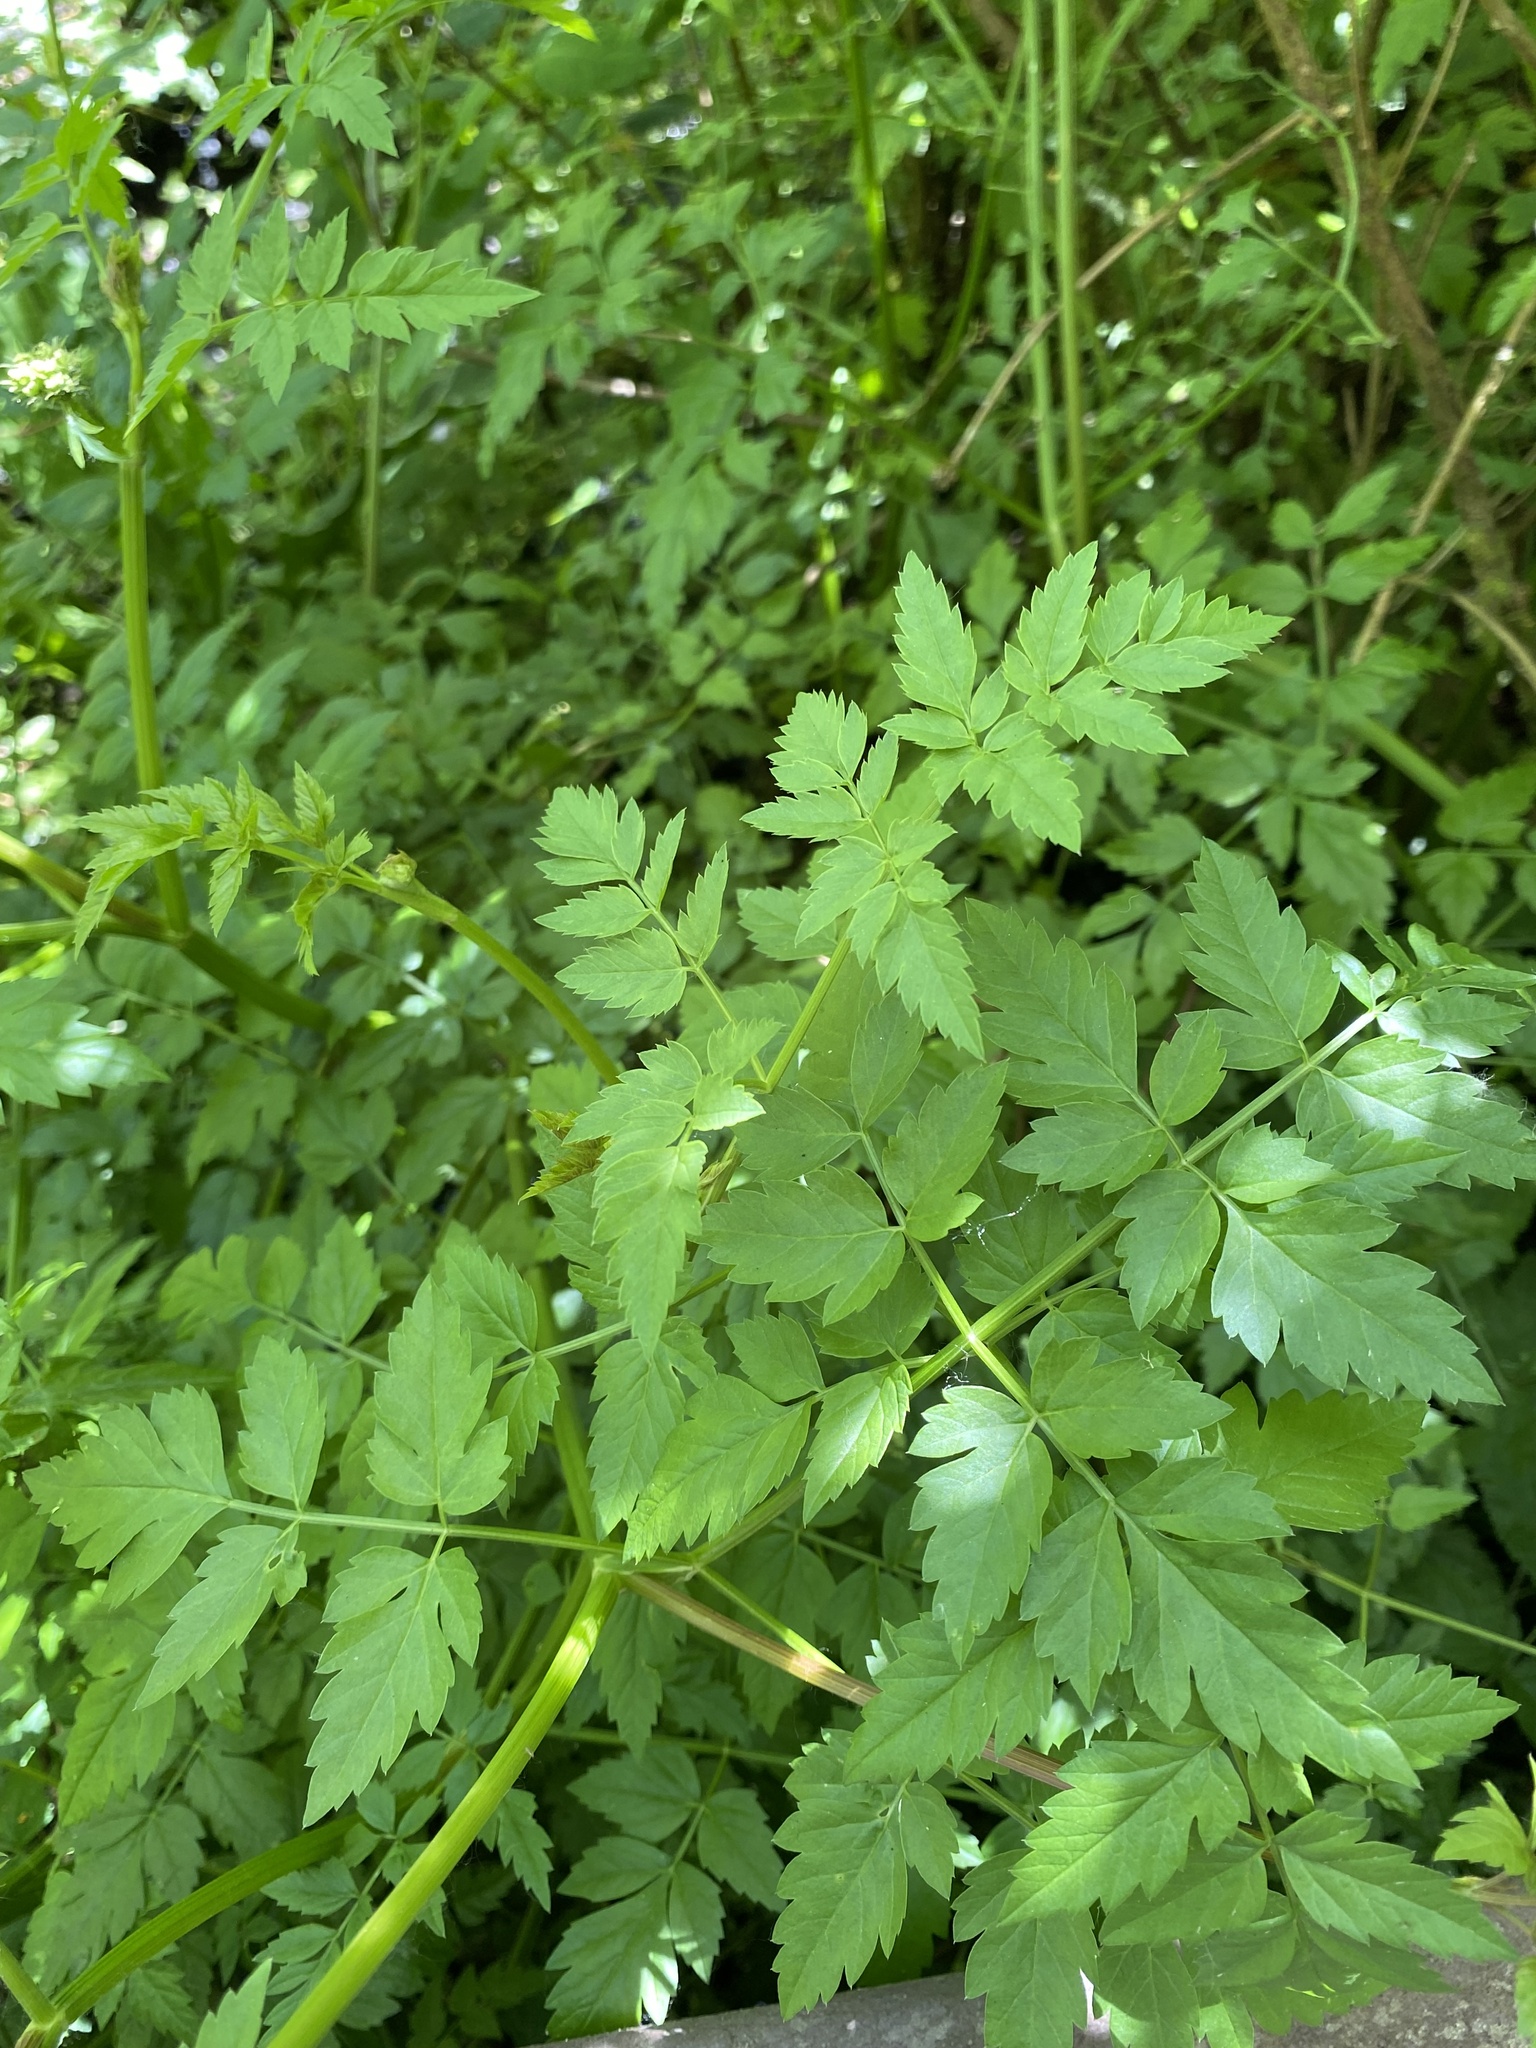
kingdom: Plantae
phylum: Tracheophyta
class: Magnoliopsida
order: Apiales
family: Apiaceae
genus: Oenanthe
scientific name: Oenanthe sarmentosa
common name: American water-parsley
